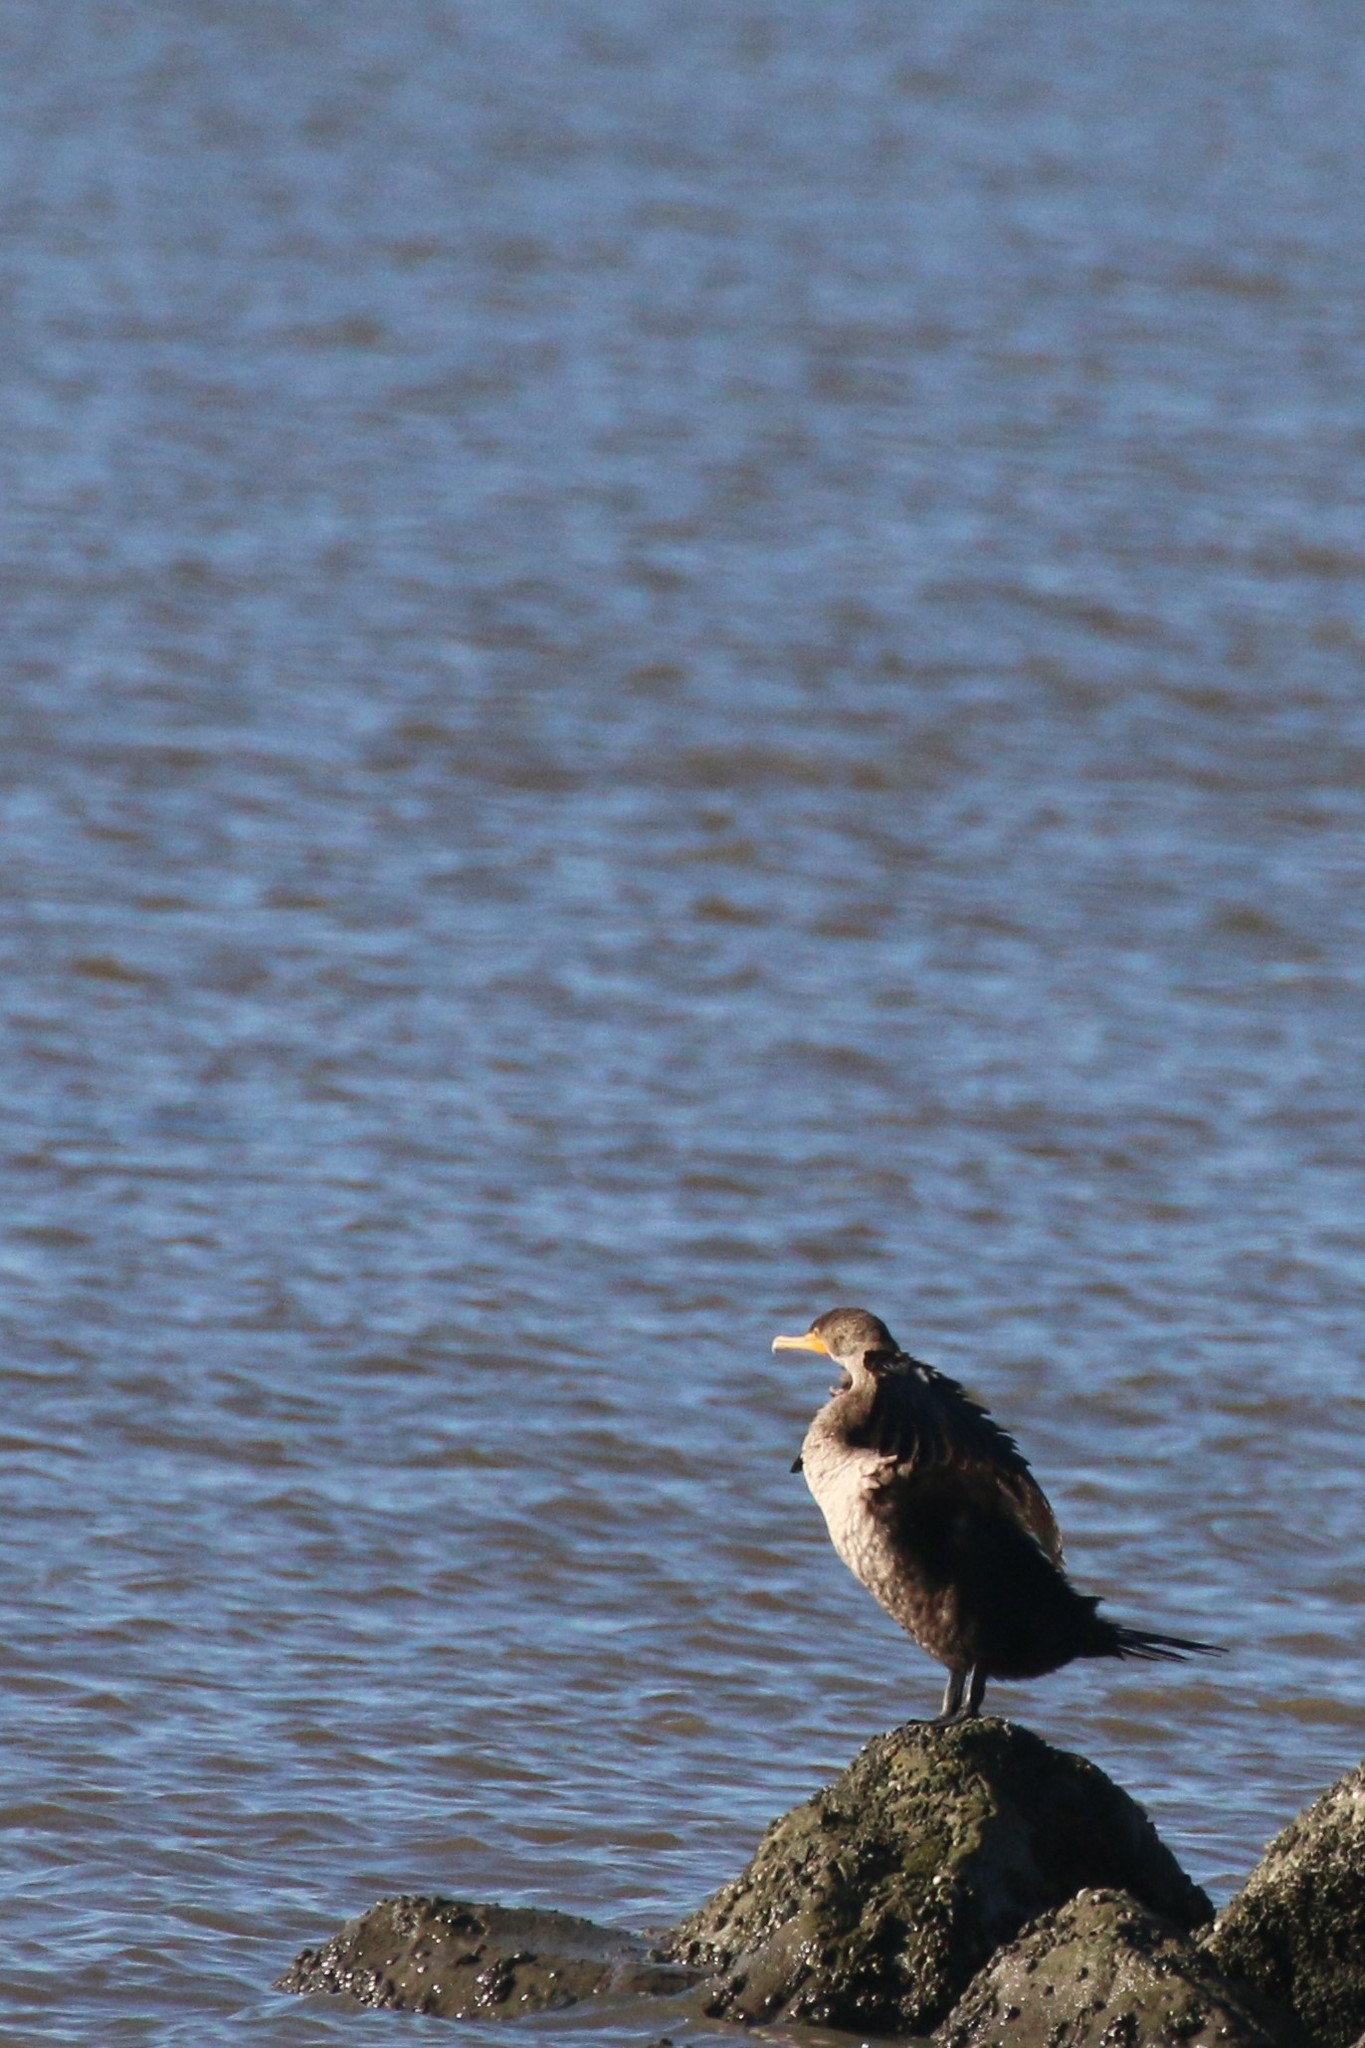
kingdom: Animalia
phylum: Chordata
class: Aves
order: Suliformes
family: Phalacrocoracidae
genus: Phalacrocorax
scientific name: Phalacrocorax auritus
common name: Double-crested cormorant
